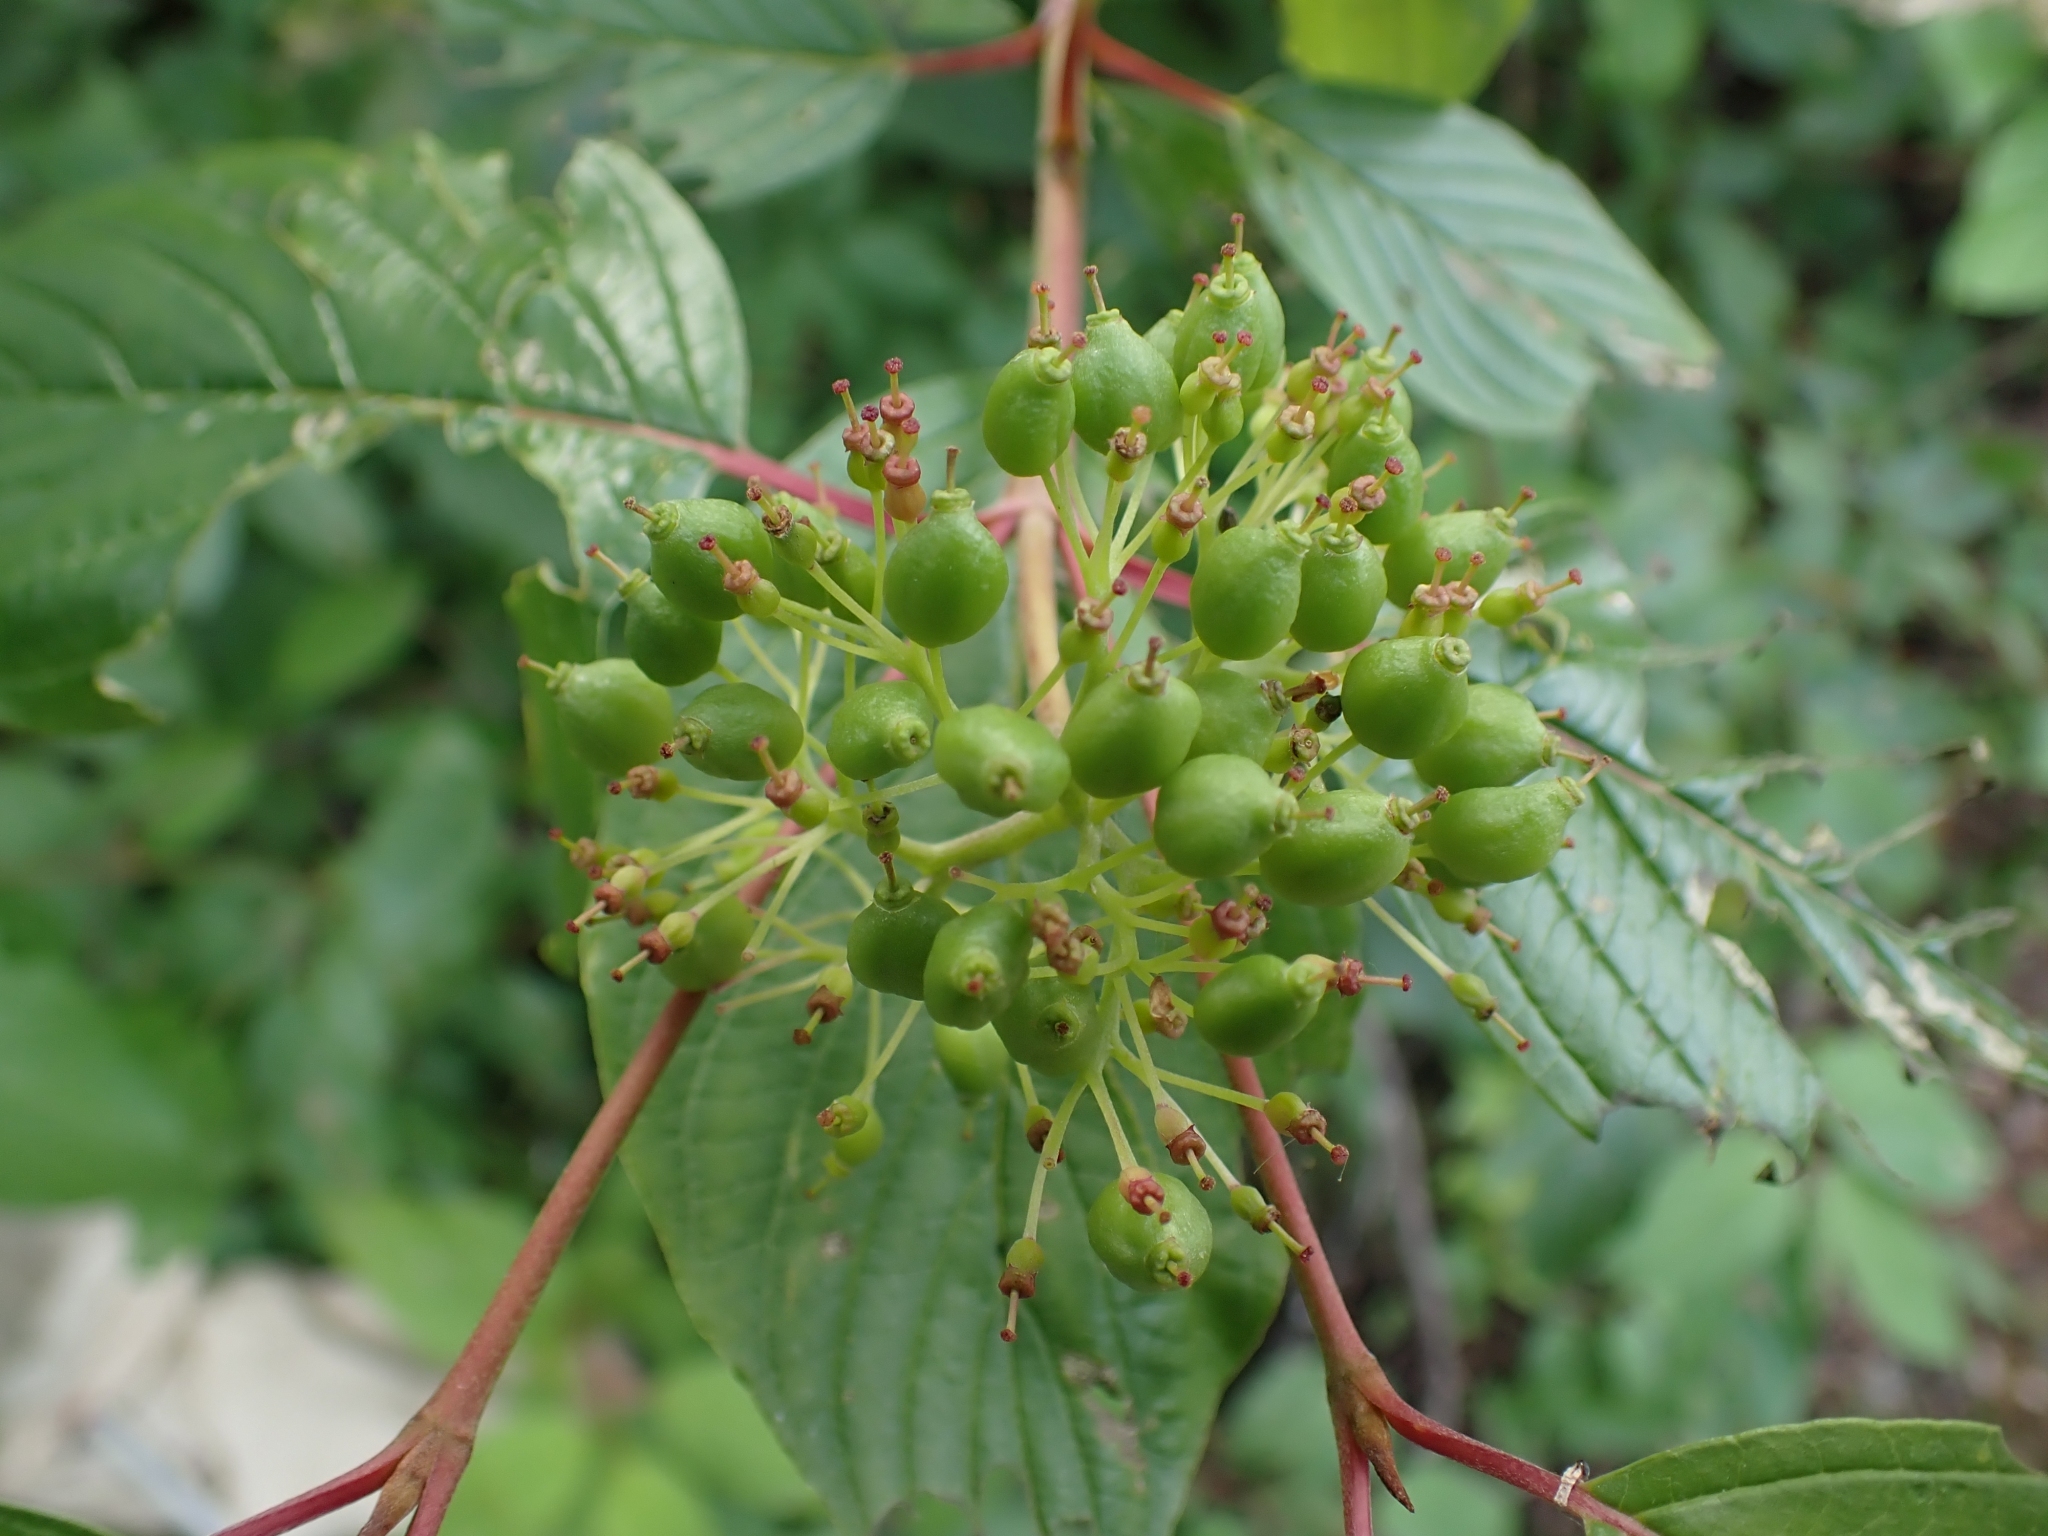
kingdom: Plantae
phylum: Tracheophyta
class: Magnoliopsida
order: Cornales
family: Cornaceae
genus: Cornus
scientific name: Cornus sericea
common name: Red-osier dogwood
